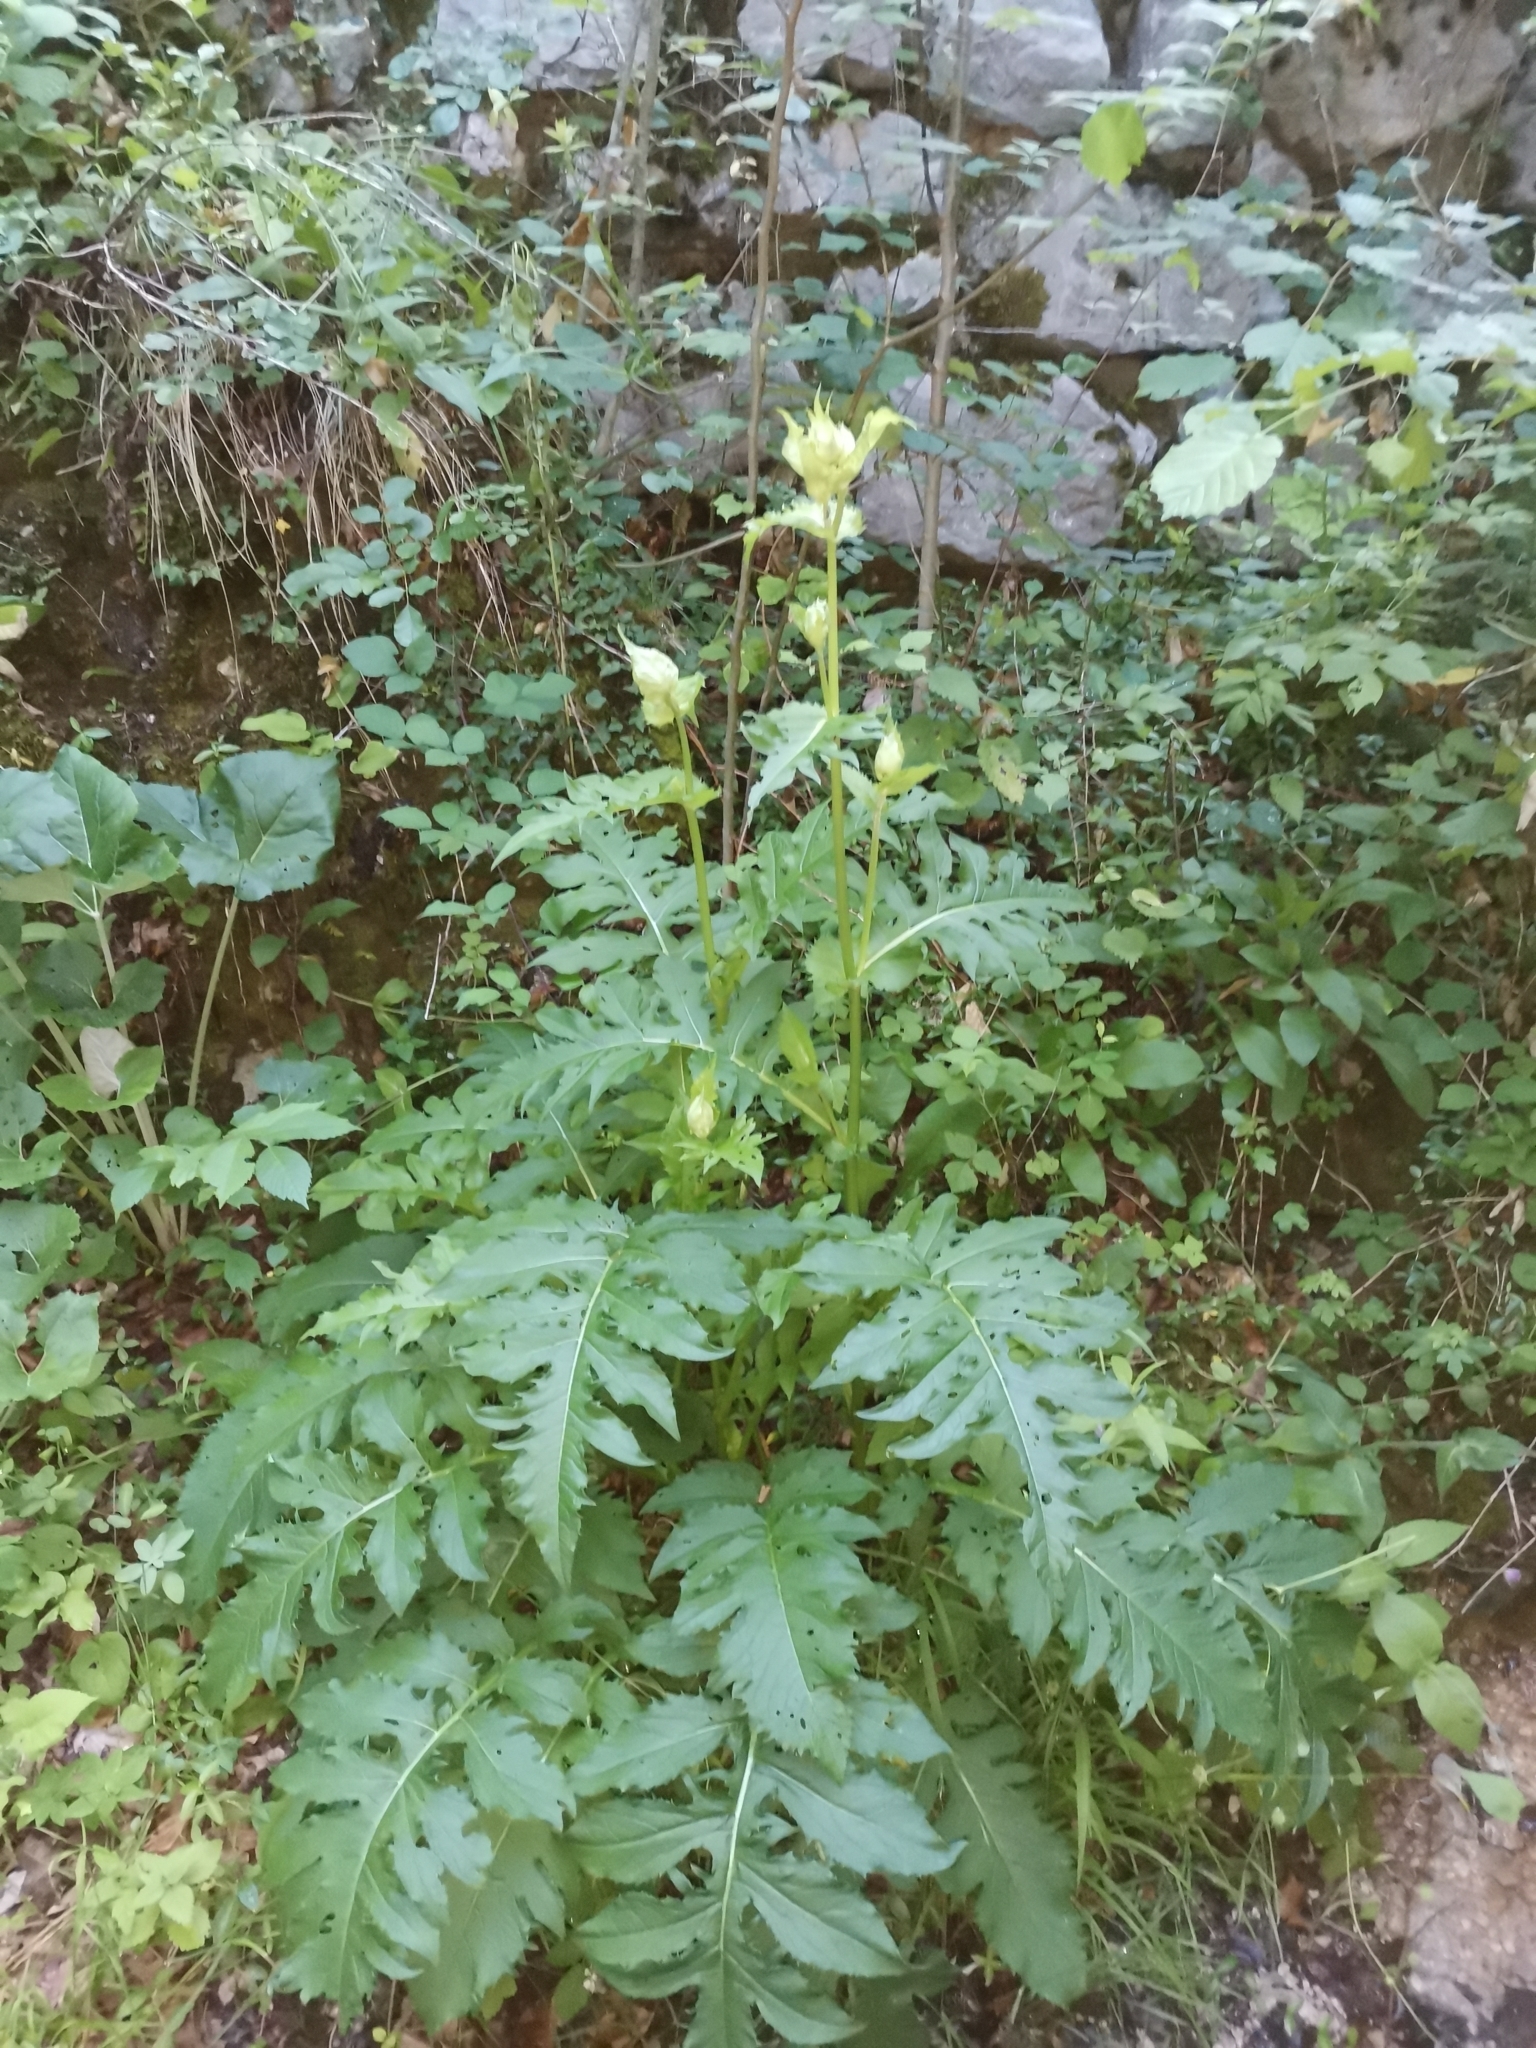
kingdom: Plantae
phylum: Tracheophyta
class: Magnoliopsida
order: Asterales
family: Asteraceae
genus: Cirsium
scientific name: Cirsium oleraceum
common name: Cabbage thistle
